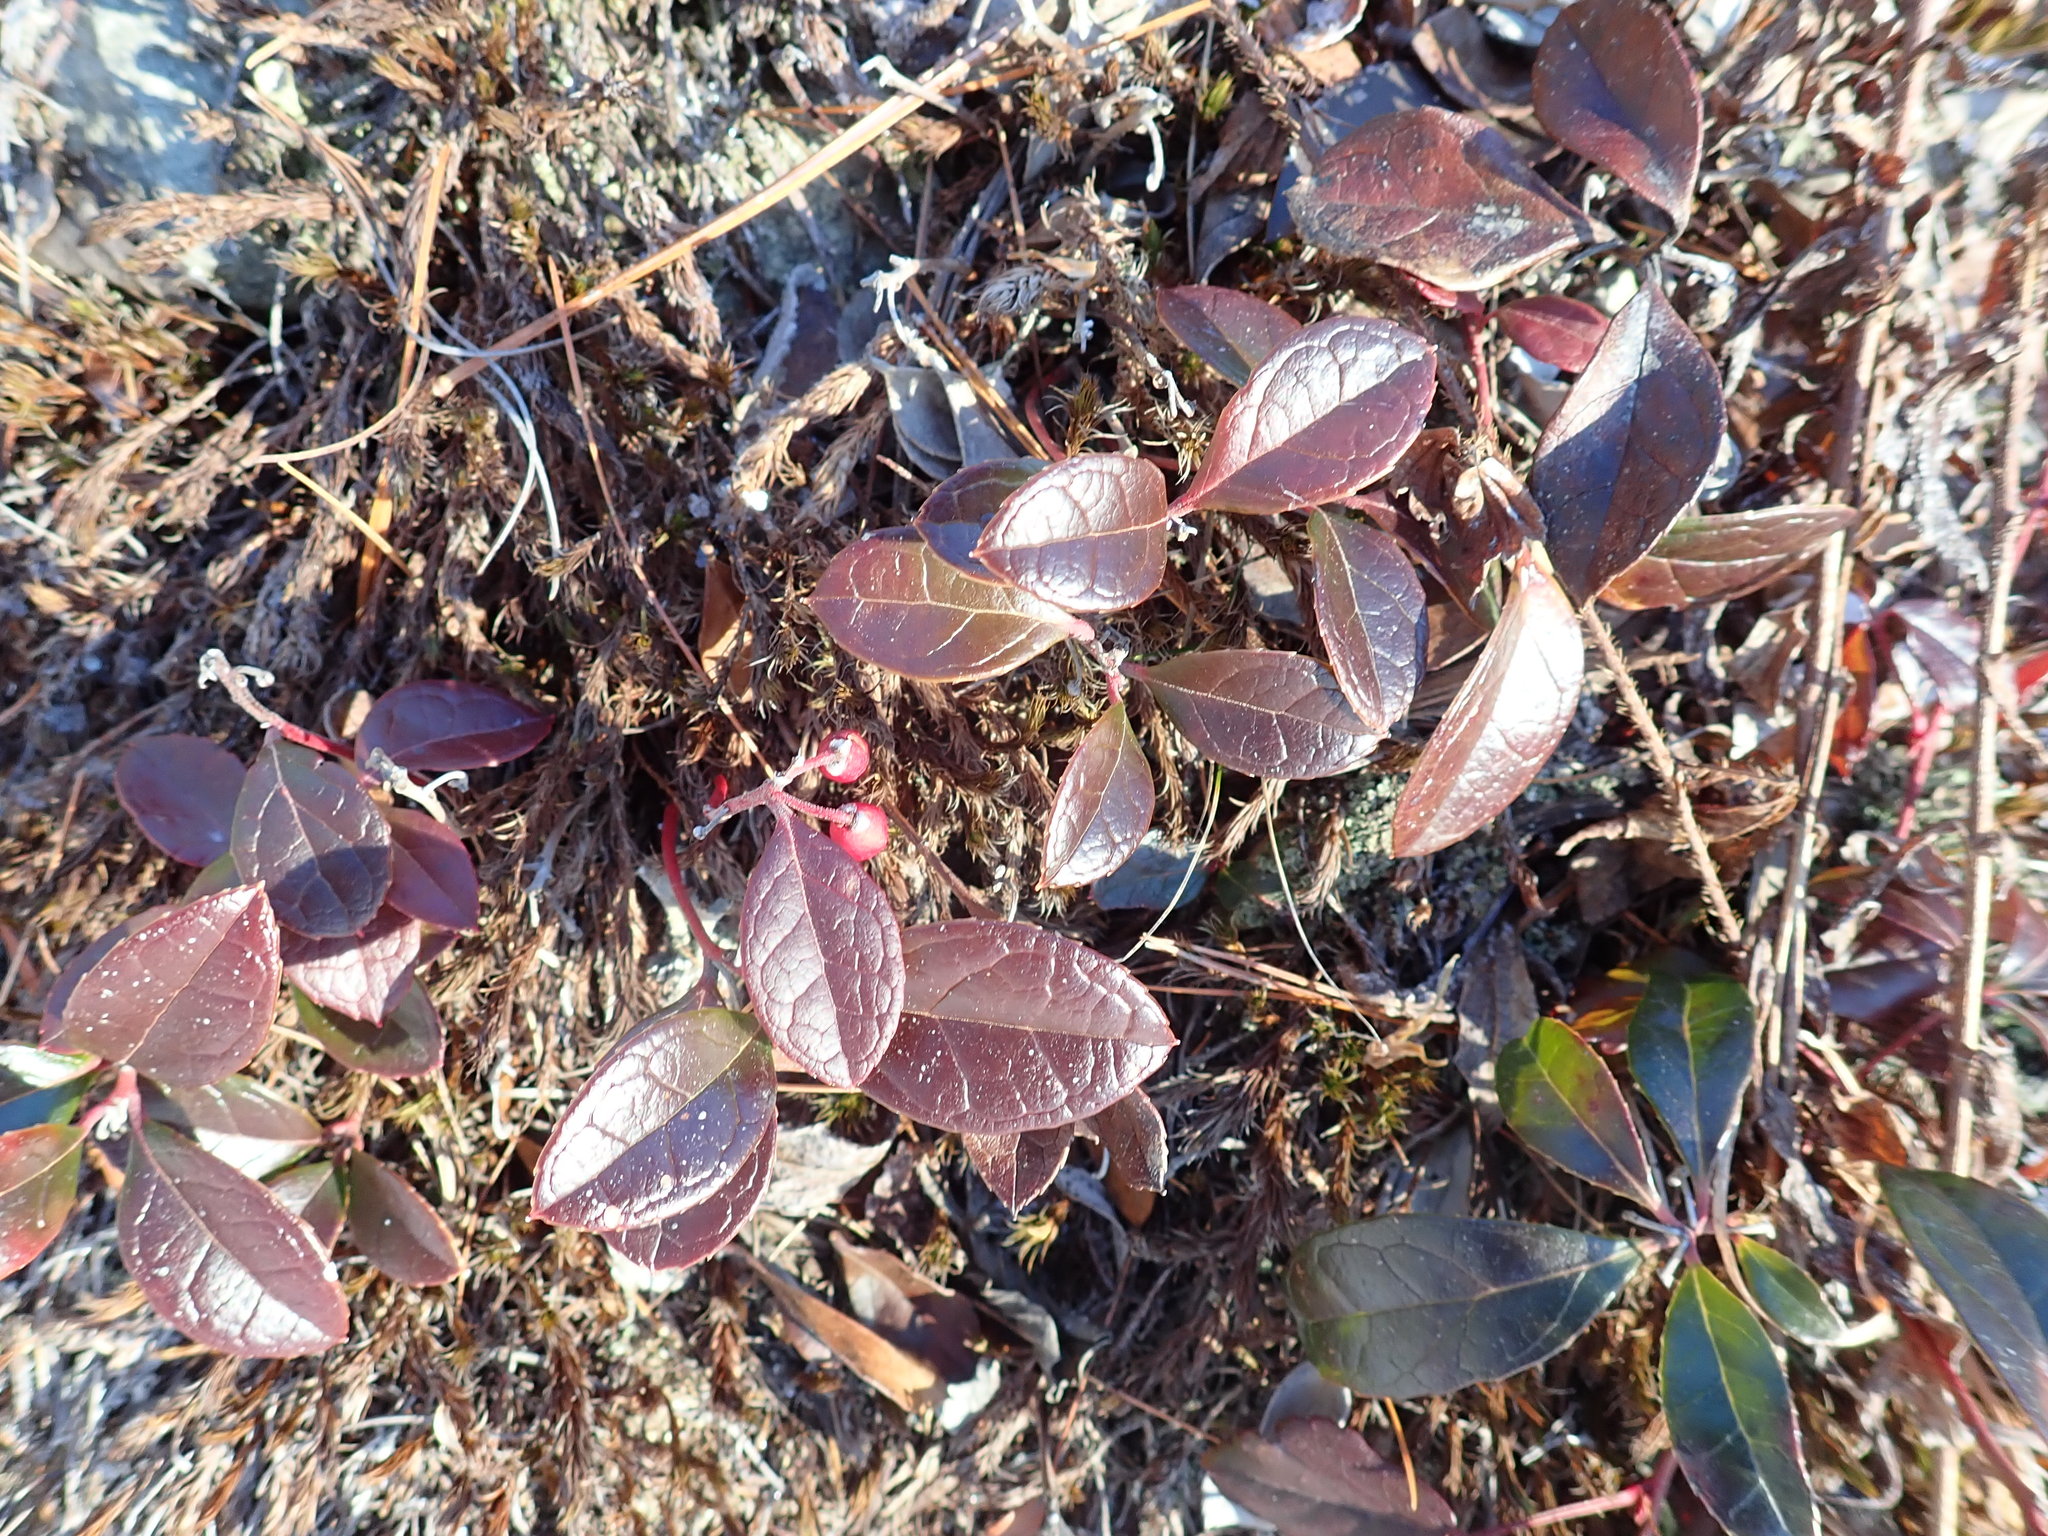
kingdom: Plantae
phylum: Tracheophyta
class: Magnoliopsida
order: Ericales
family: Ericaceae
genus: Gaultheria
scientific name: Gaultheria procumbens
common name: Checkerberry
